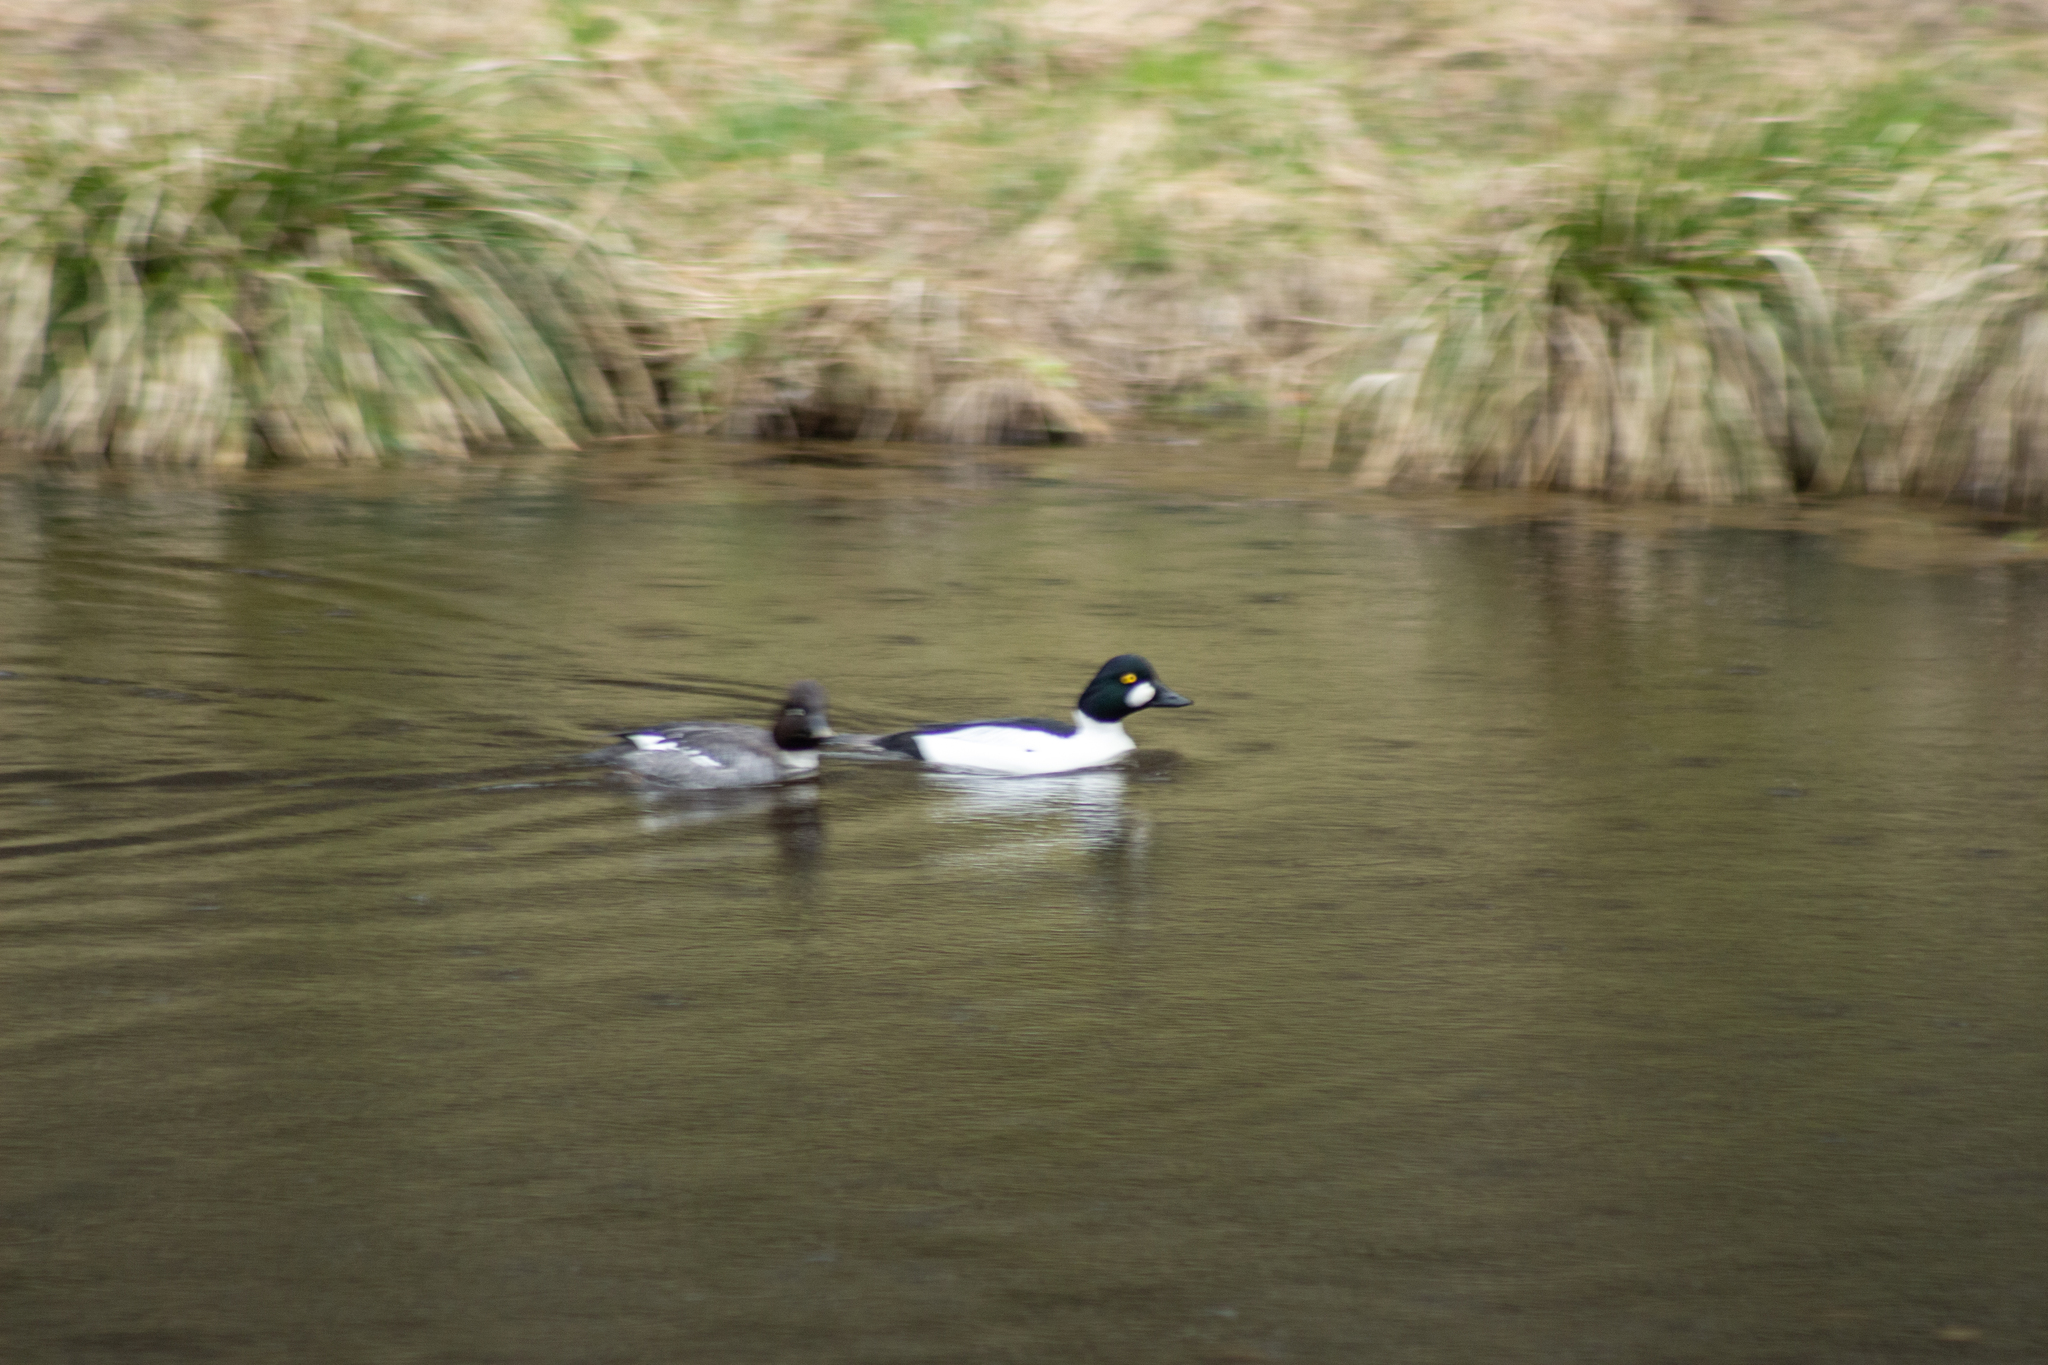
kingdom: Animalia
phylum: Chordata
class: Aves
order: Anseriformes
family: Anatidae
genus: Bucephala
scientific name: Bucephala clangula
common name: Common goldeneye
